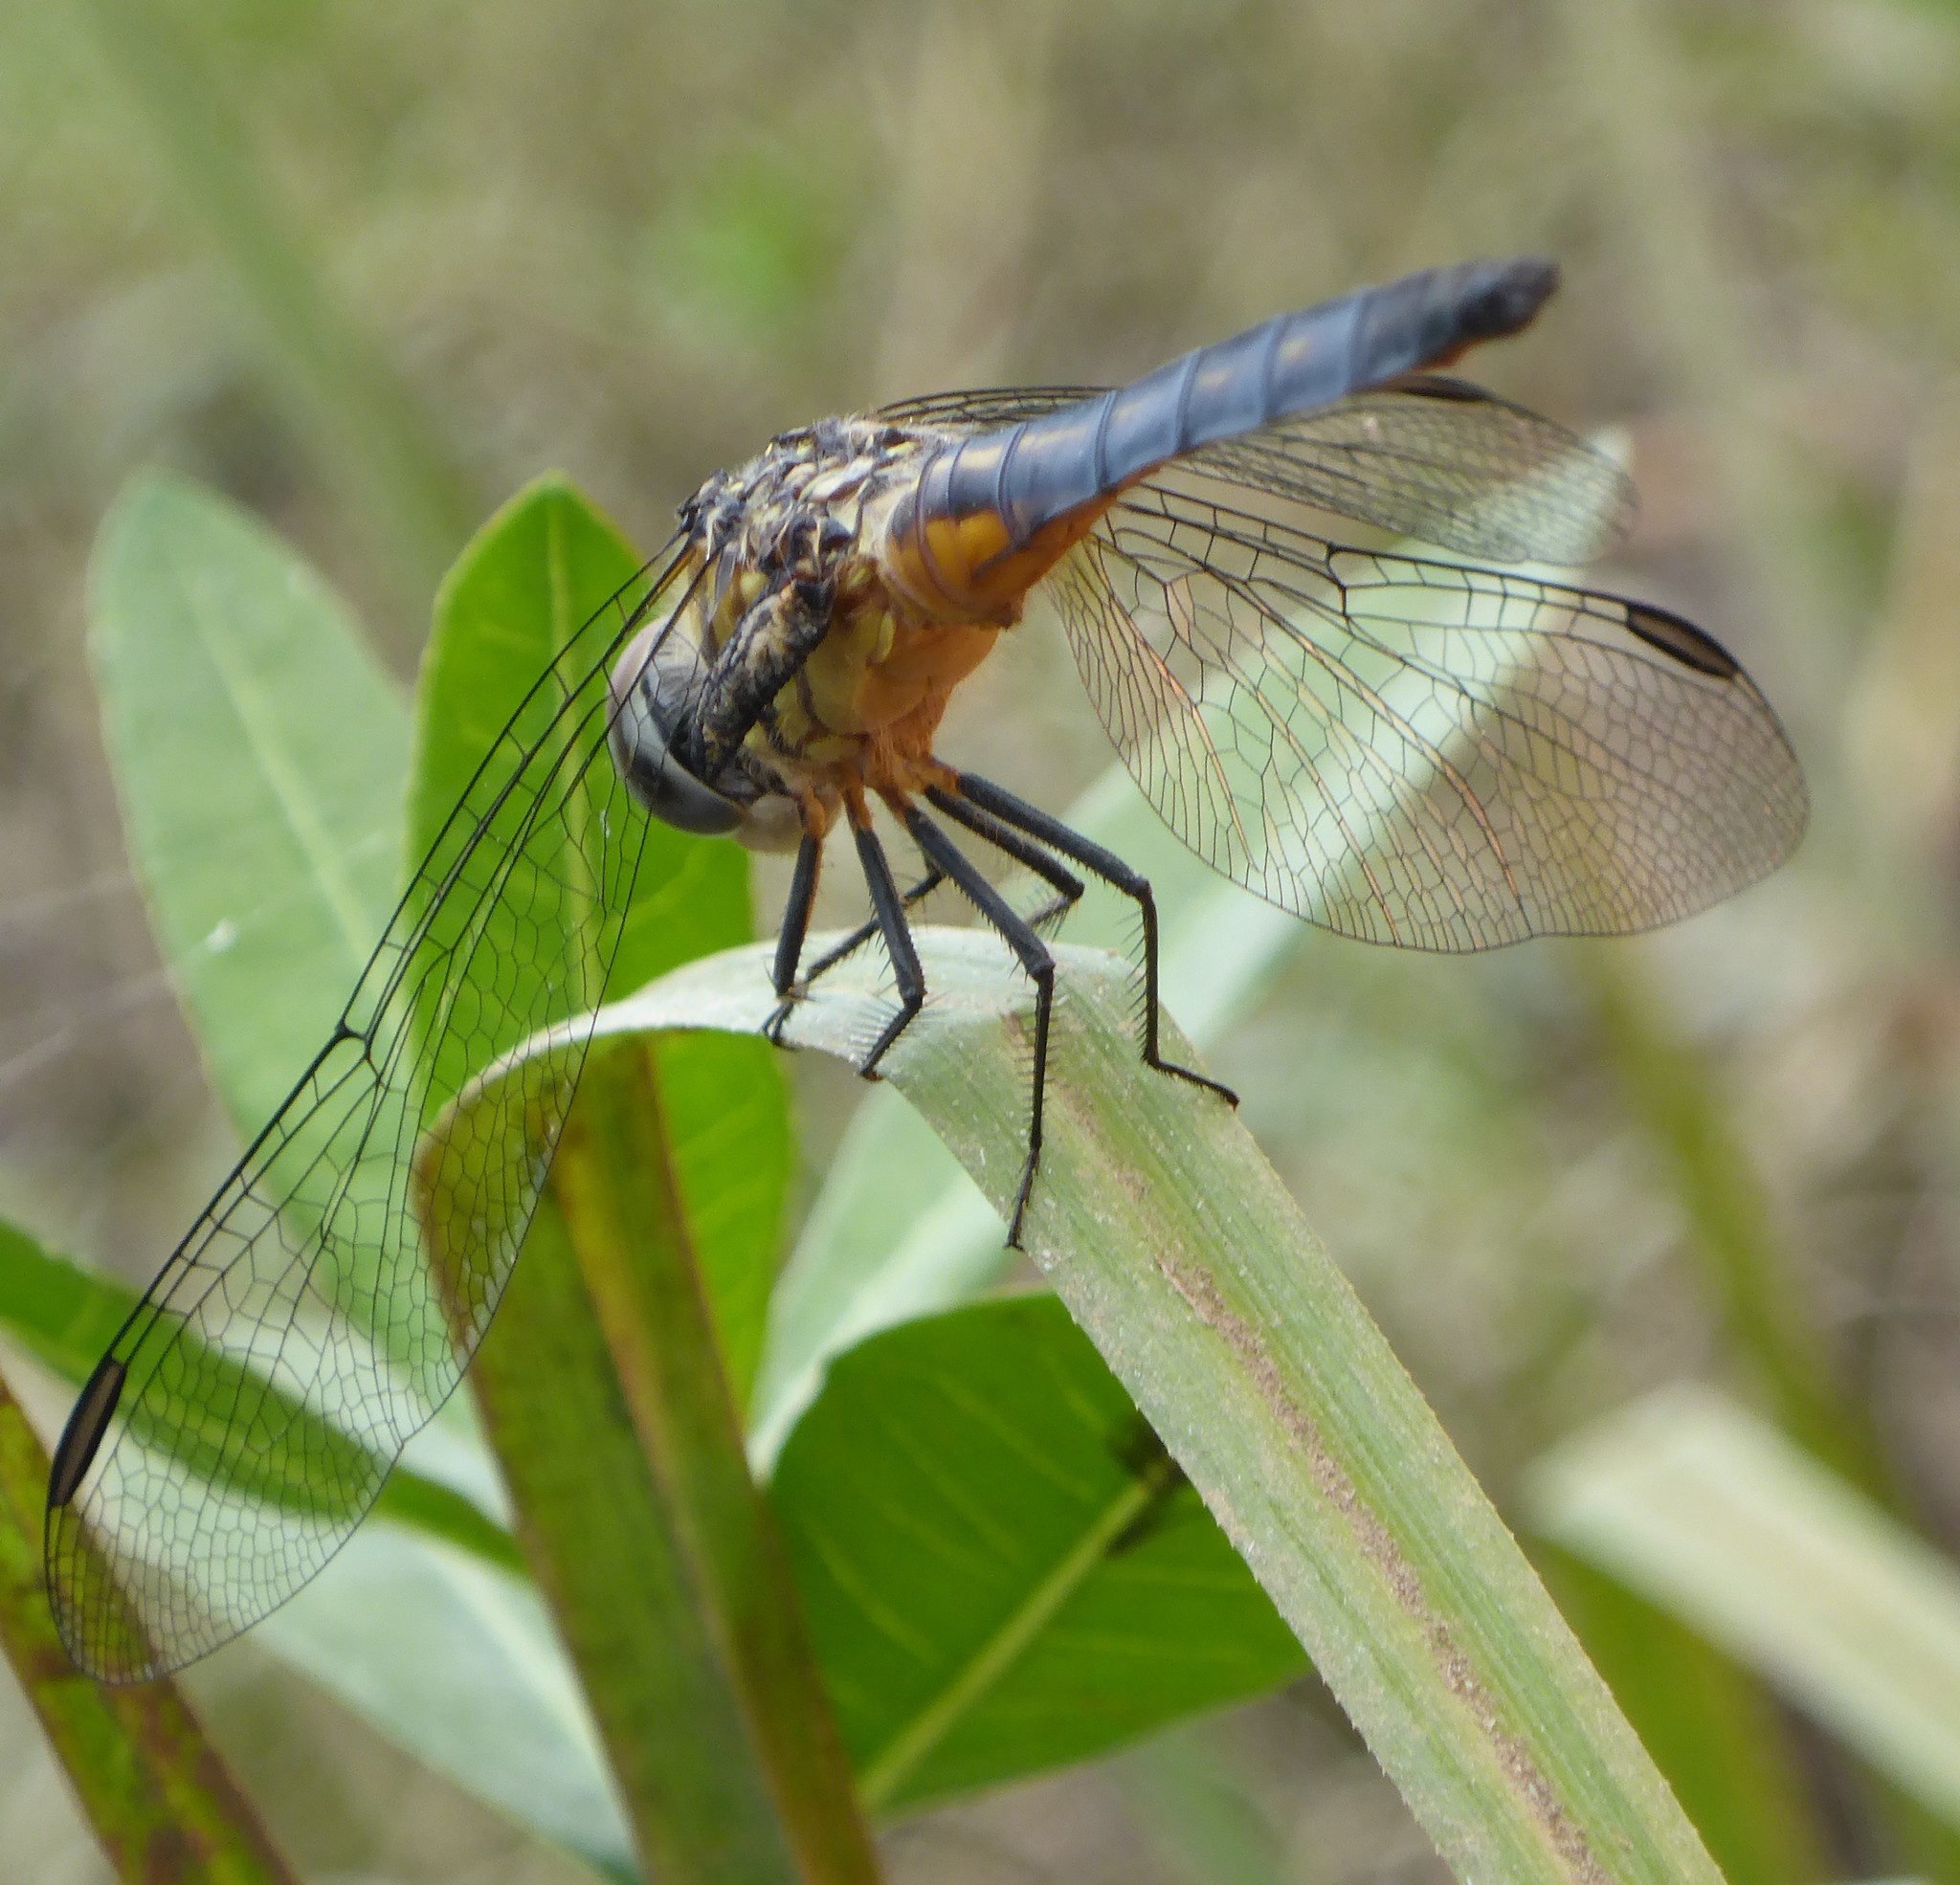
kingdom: Animalia
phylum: Arthropoda
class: Insecta
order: Odonata
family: Libellulidae
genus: Pachydiplax
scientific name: Pachydiplax longipennis
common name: Blue dasher
